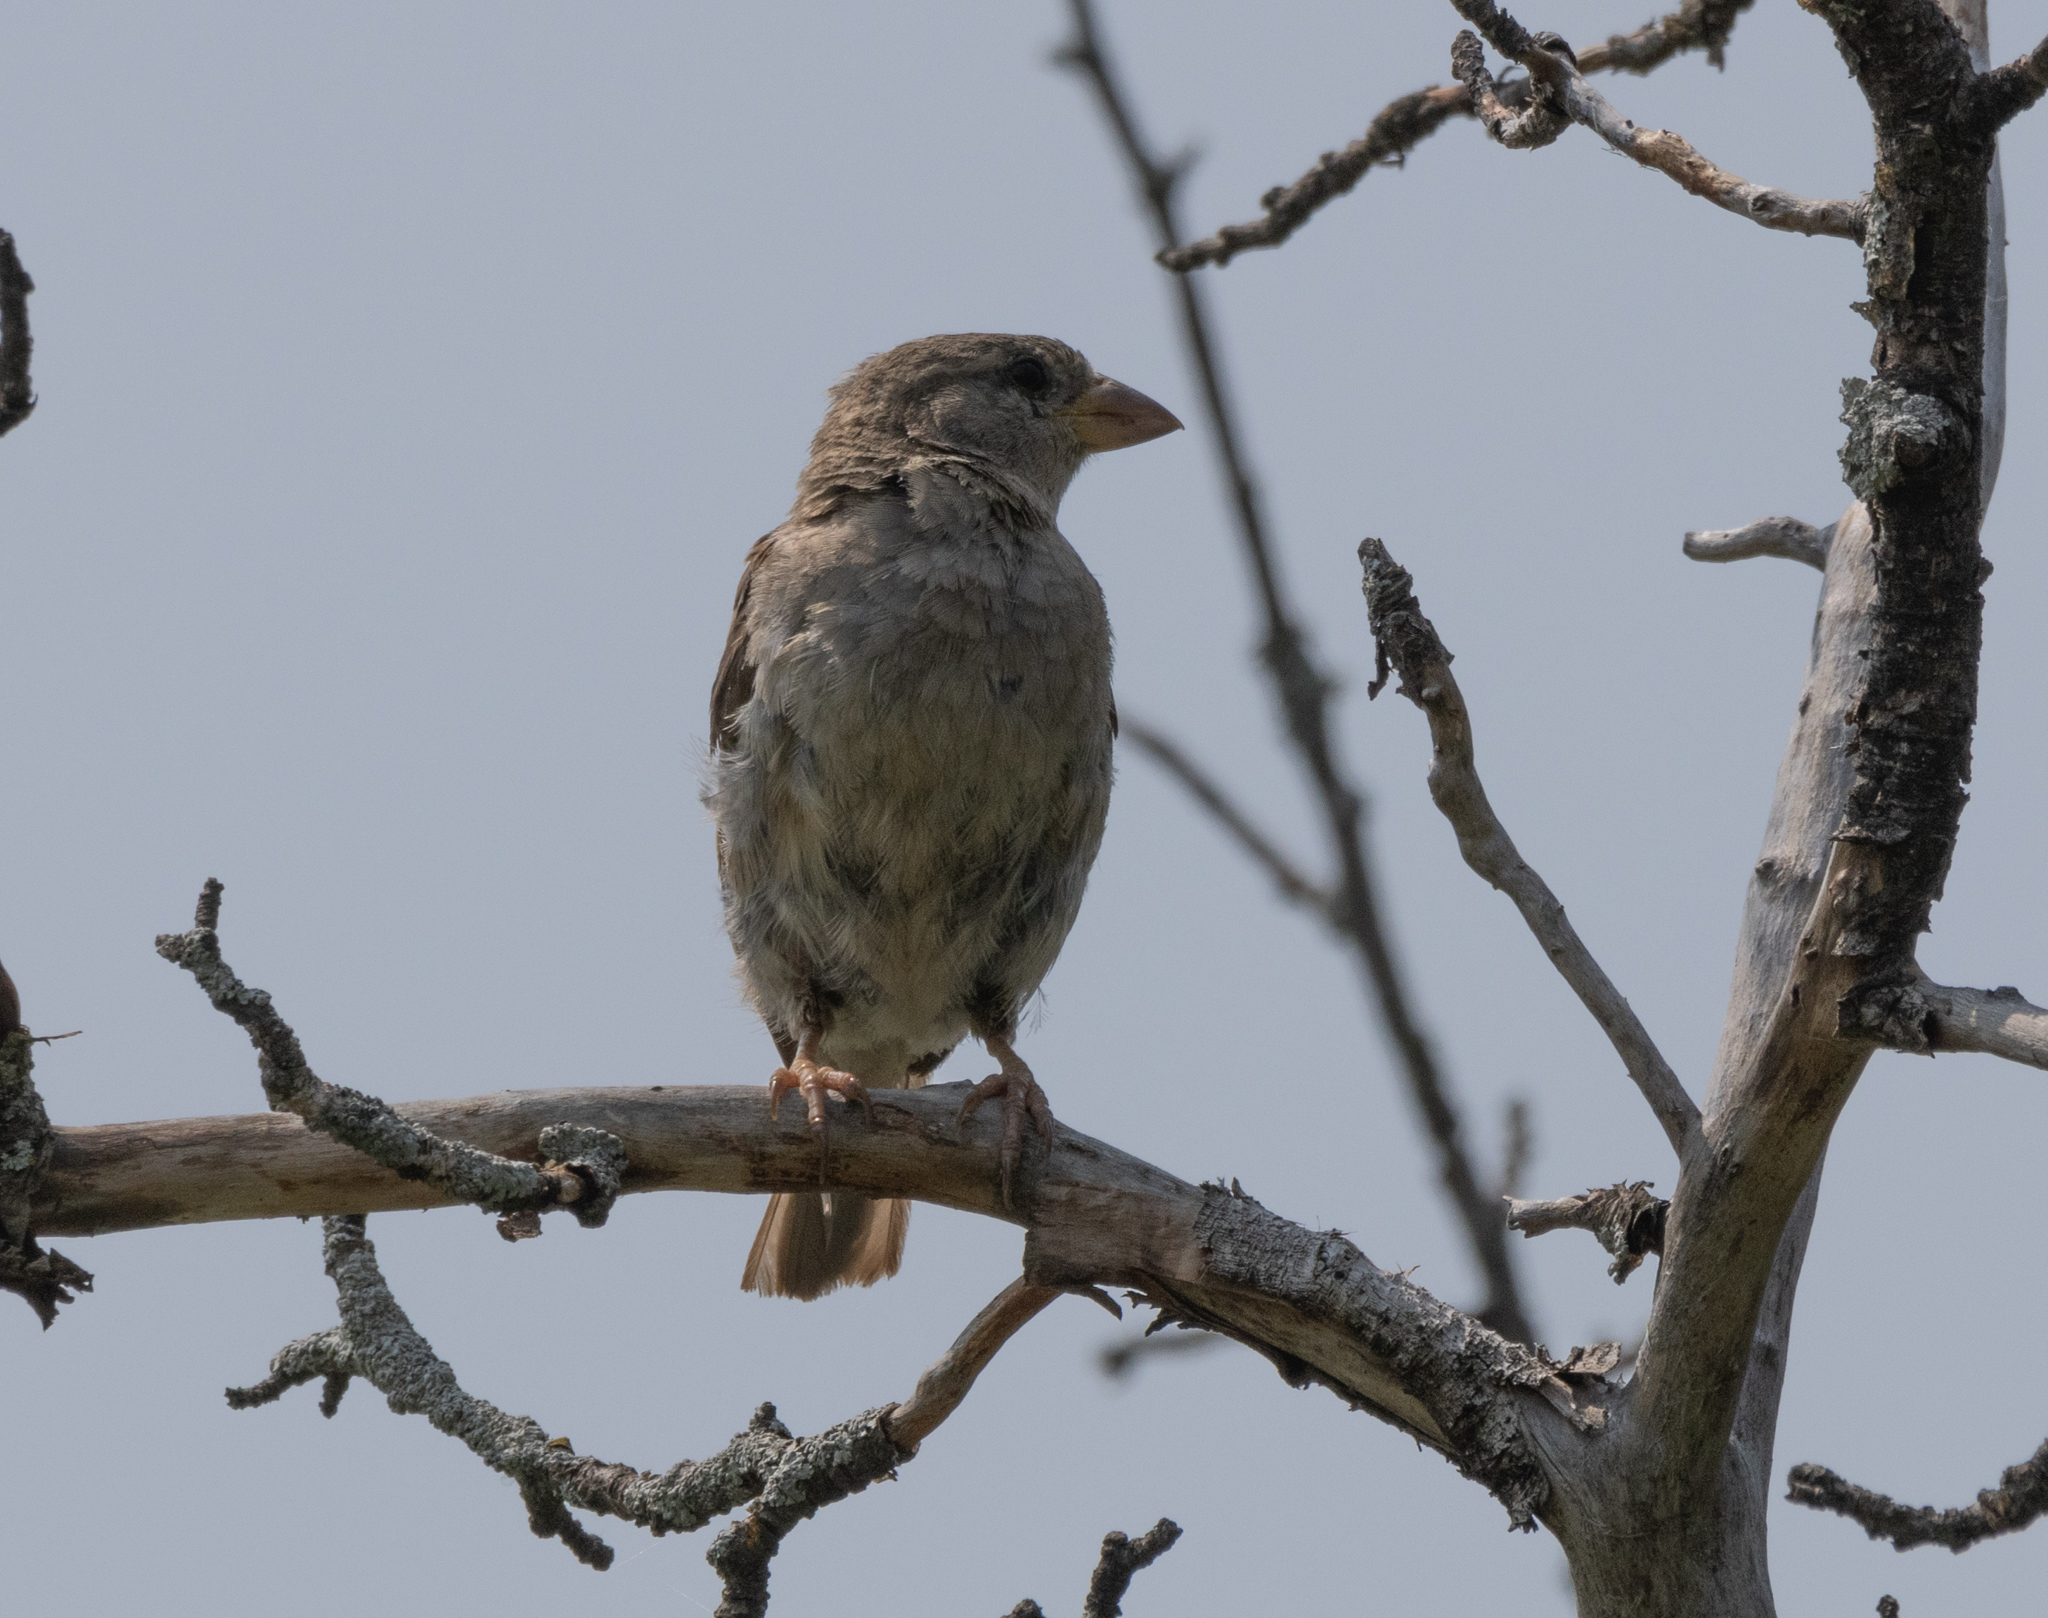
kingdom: Animalia
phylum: Chordata
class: Aves
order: Passeriformes
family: Passeridae
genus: Passer
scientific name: Passer domesticus
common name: House sparrow
